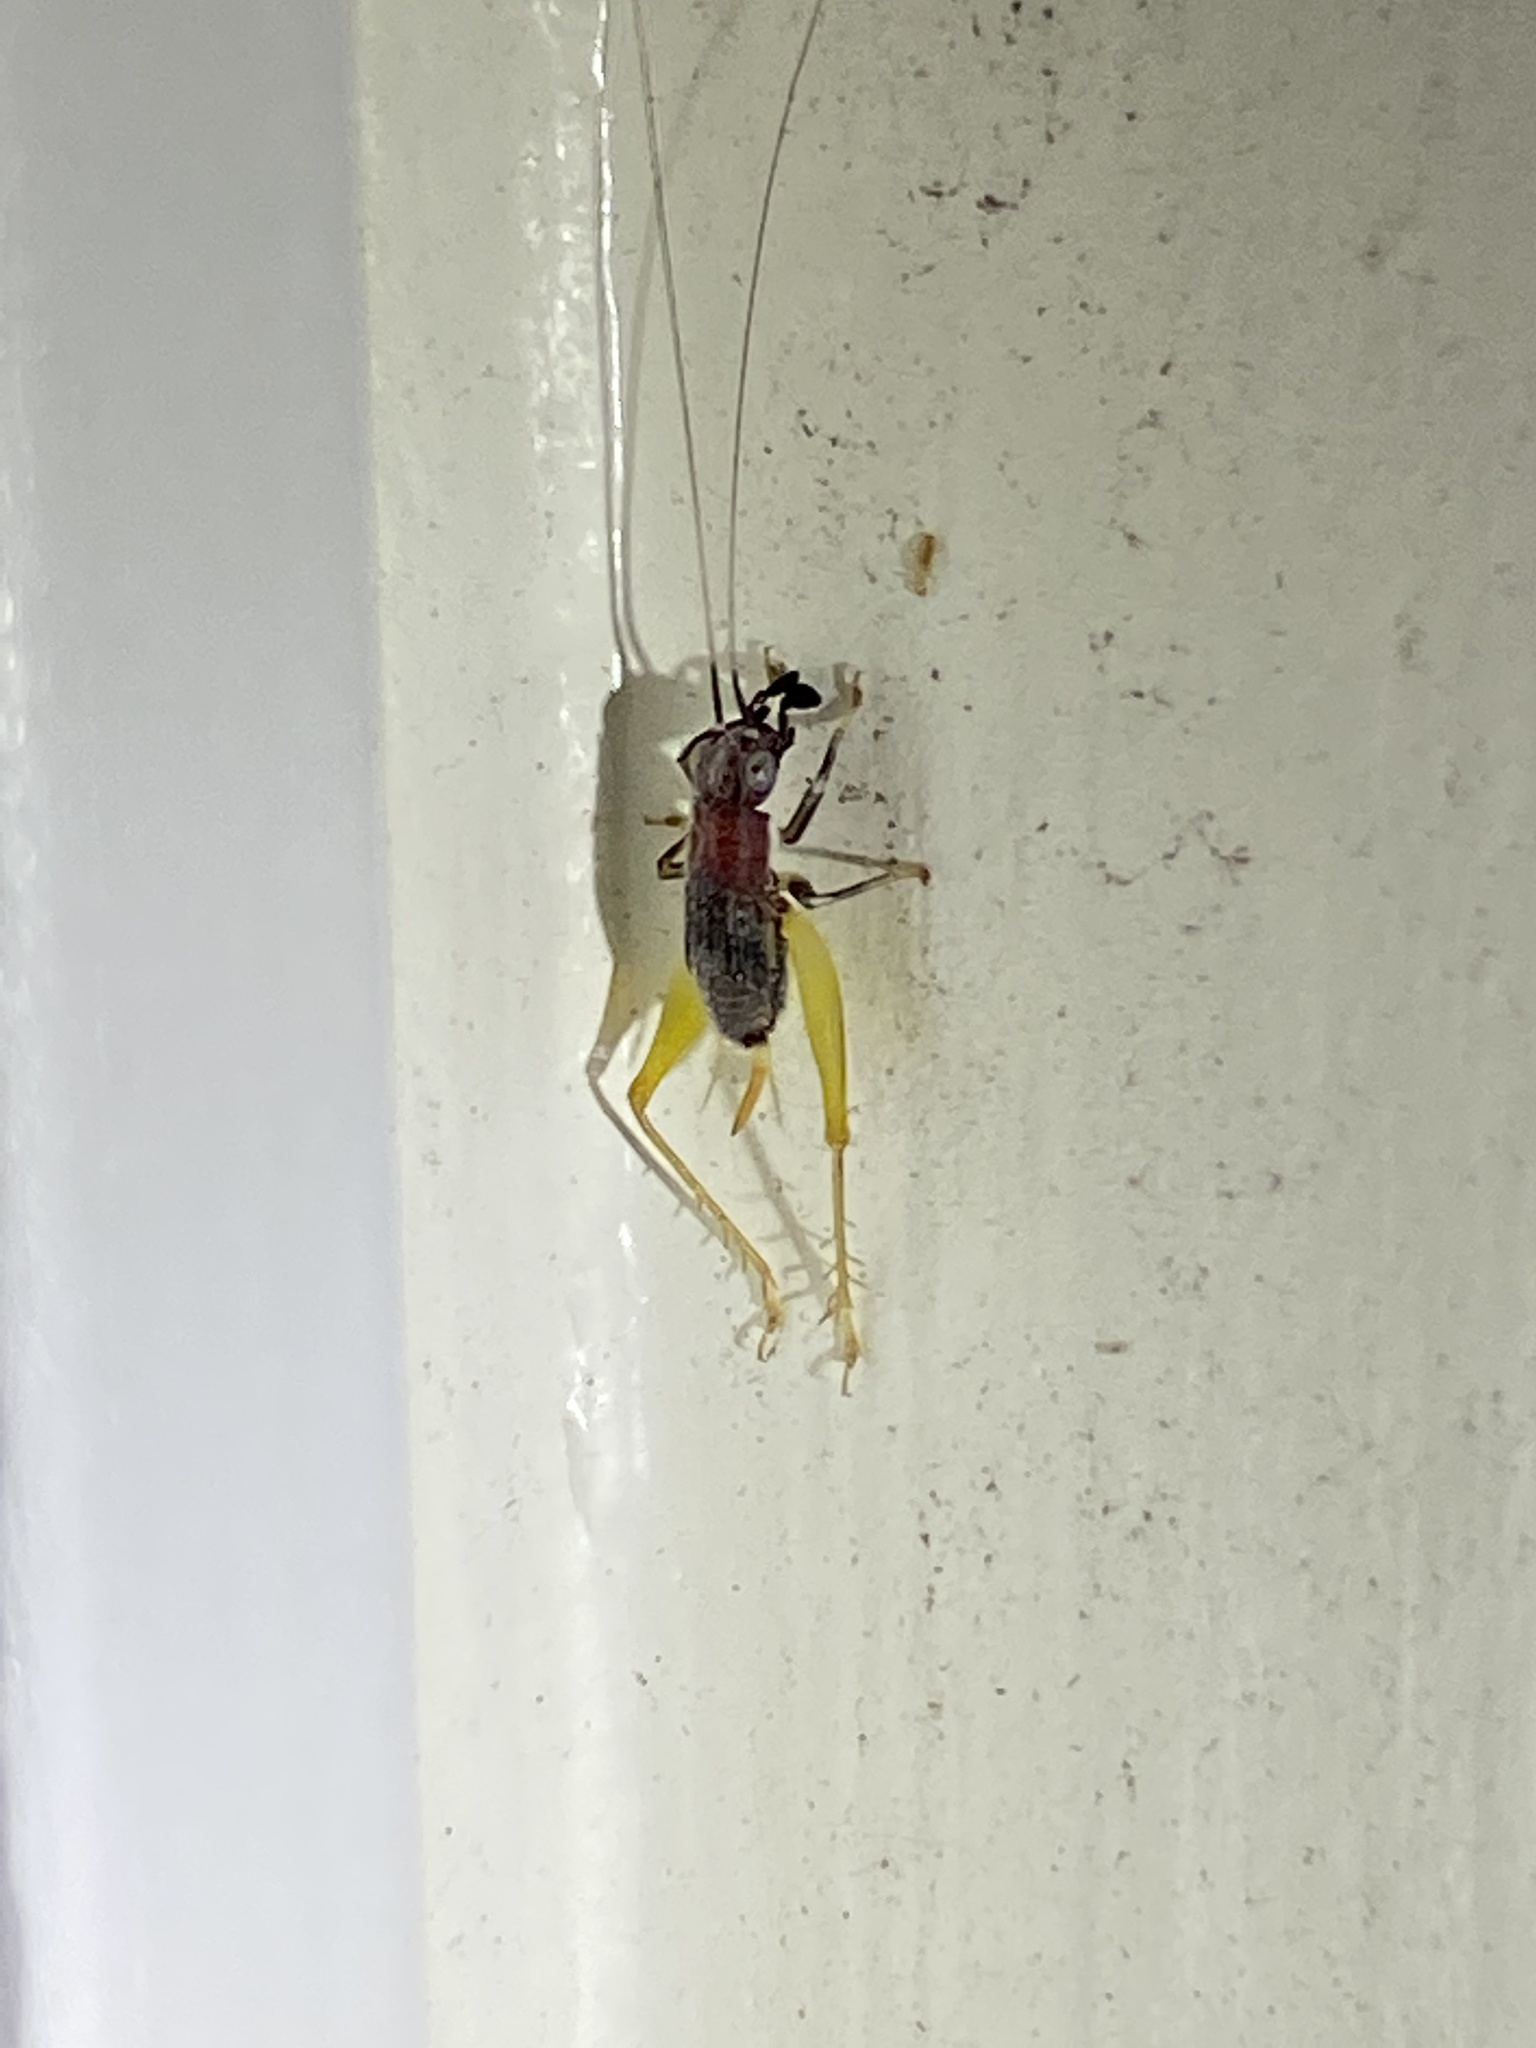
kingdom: Animalia
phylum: Arthropoda
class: Insecta
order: Orthoptera
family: Trigonidiidae
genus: Phyllopalpus
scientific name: Phyllopalpus pulchellus
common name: Handsome trig
